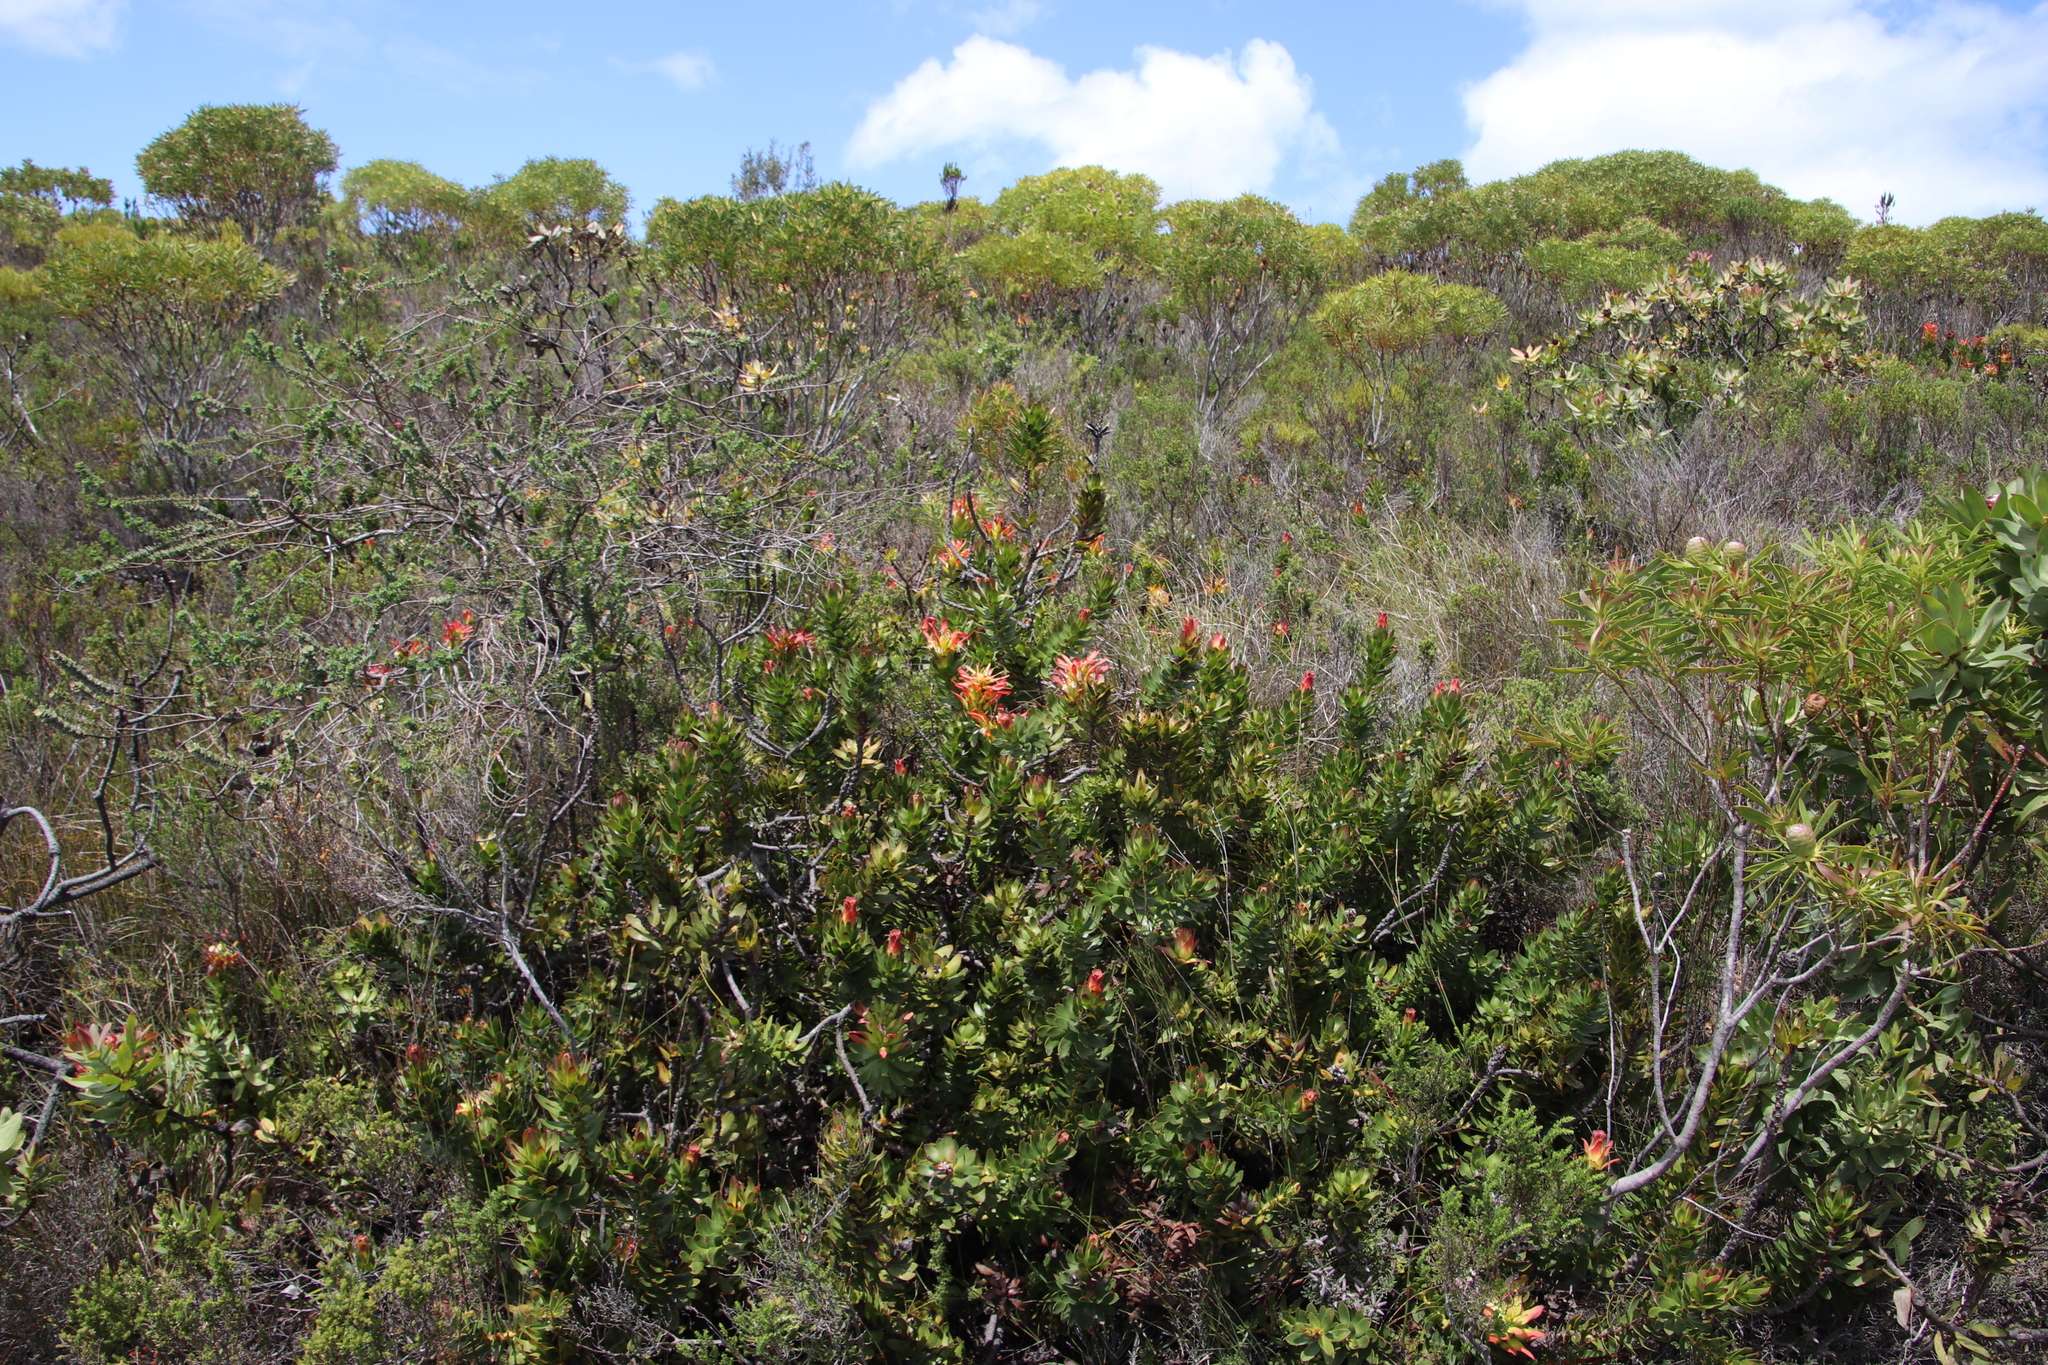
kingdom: Plantae
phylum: Tracheophyta
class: Magnoliopsida
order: Proteales
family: Proteaceae
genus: Mimetes
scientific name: Mimetes cucullatus
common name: Common pagoda
